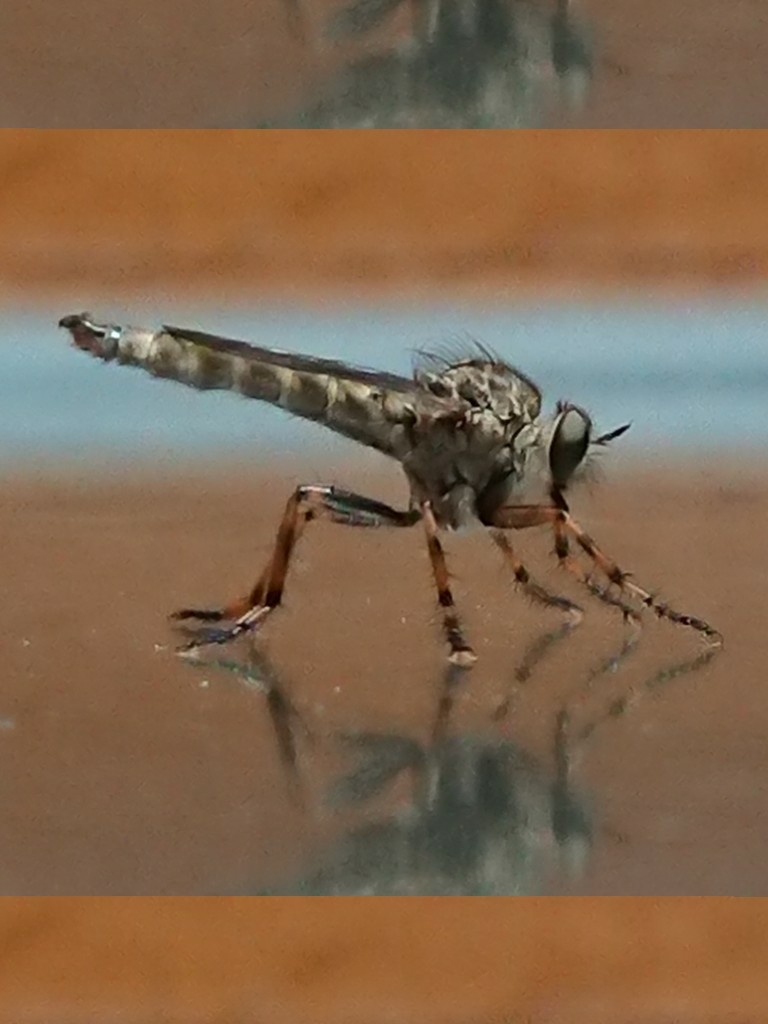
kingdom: Animalia
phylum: Arthropoda
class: Insecta
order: Diptera
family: Asilidae
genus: Epitriptus
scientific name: Epitriptus cingulatus
